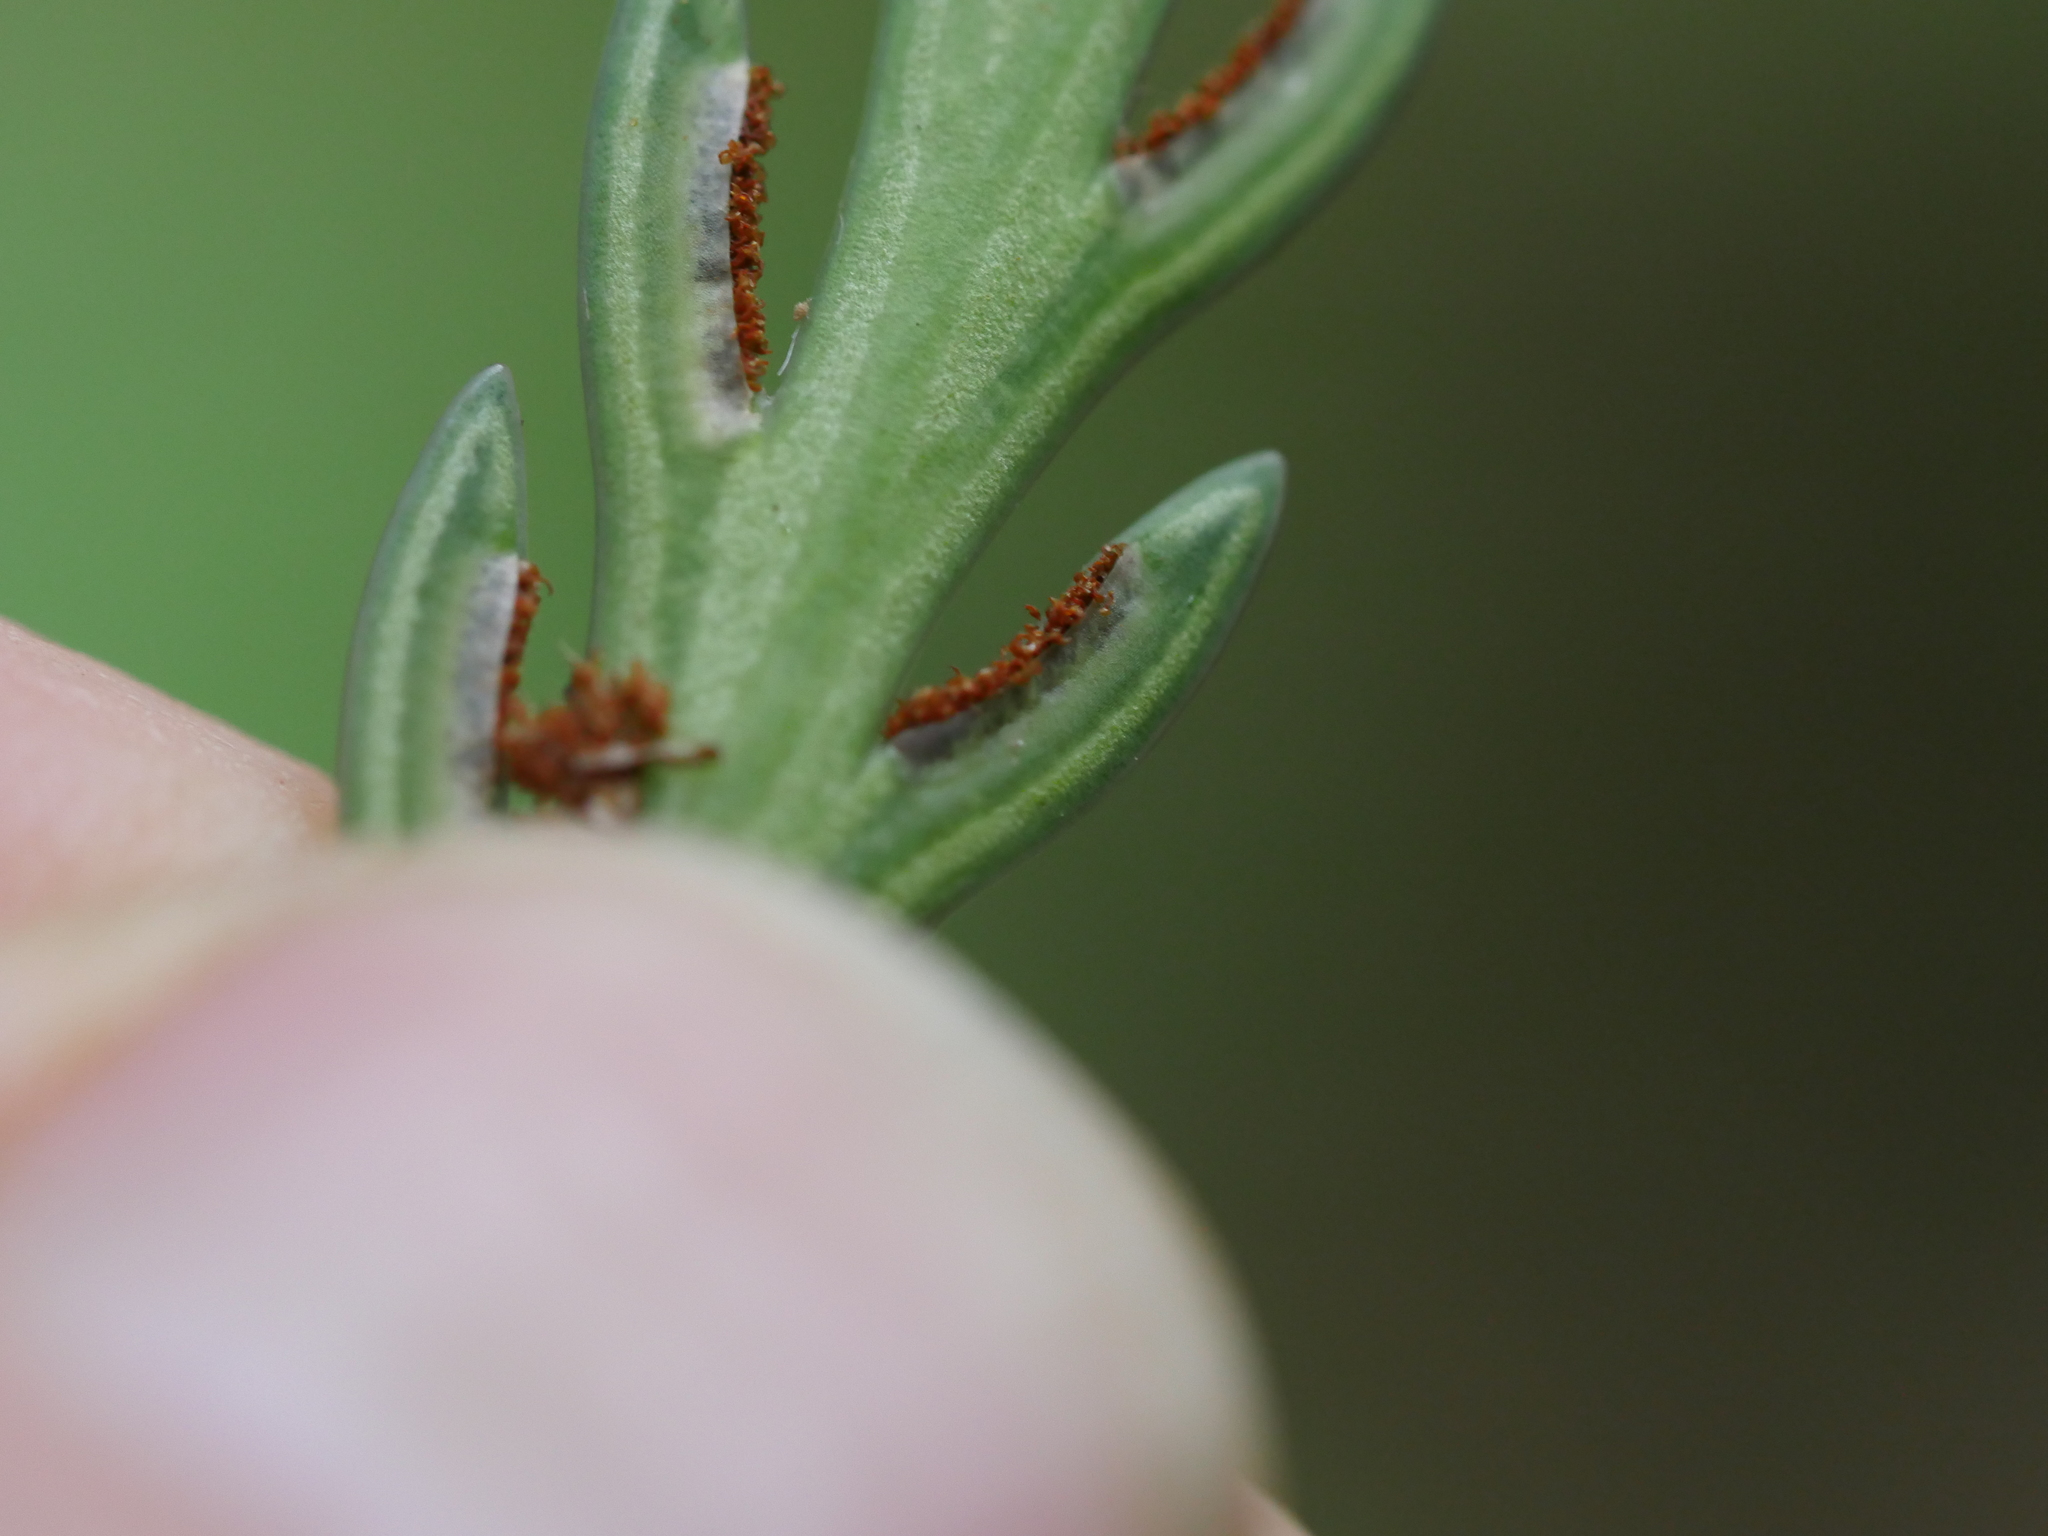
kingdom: Plantae
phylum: Tracheophyta
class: Polypodiopsida
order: Polypodiales
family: Aspleniaceae
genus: Asplenium
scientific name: Asplenium flaccidum
